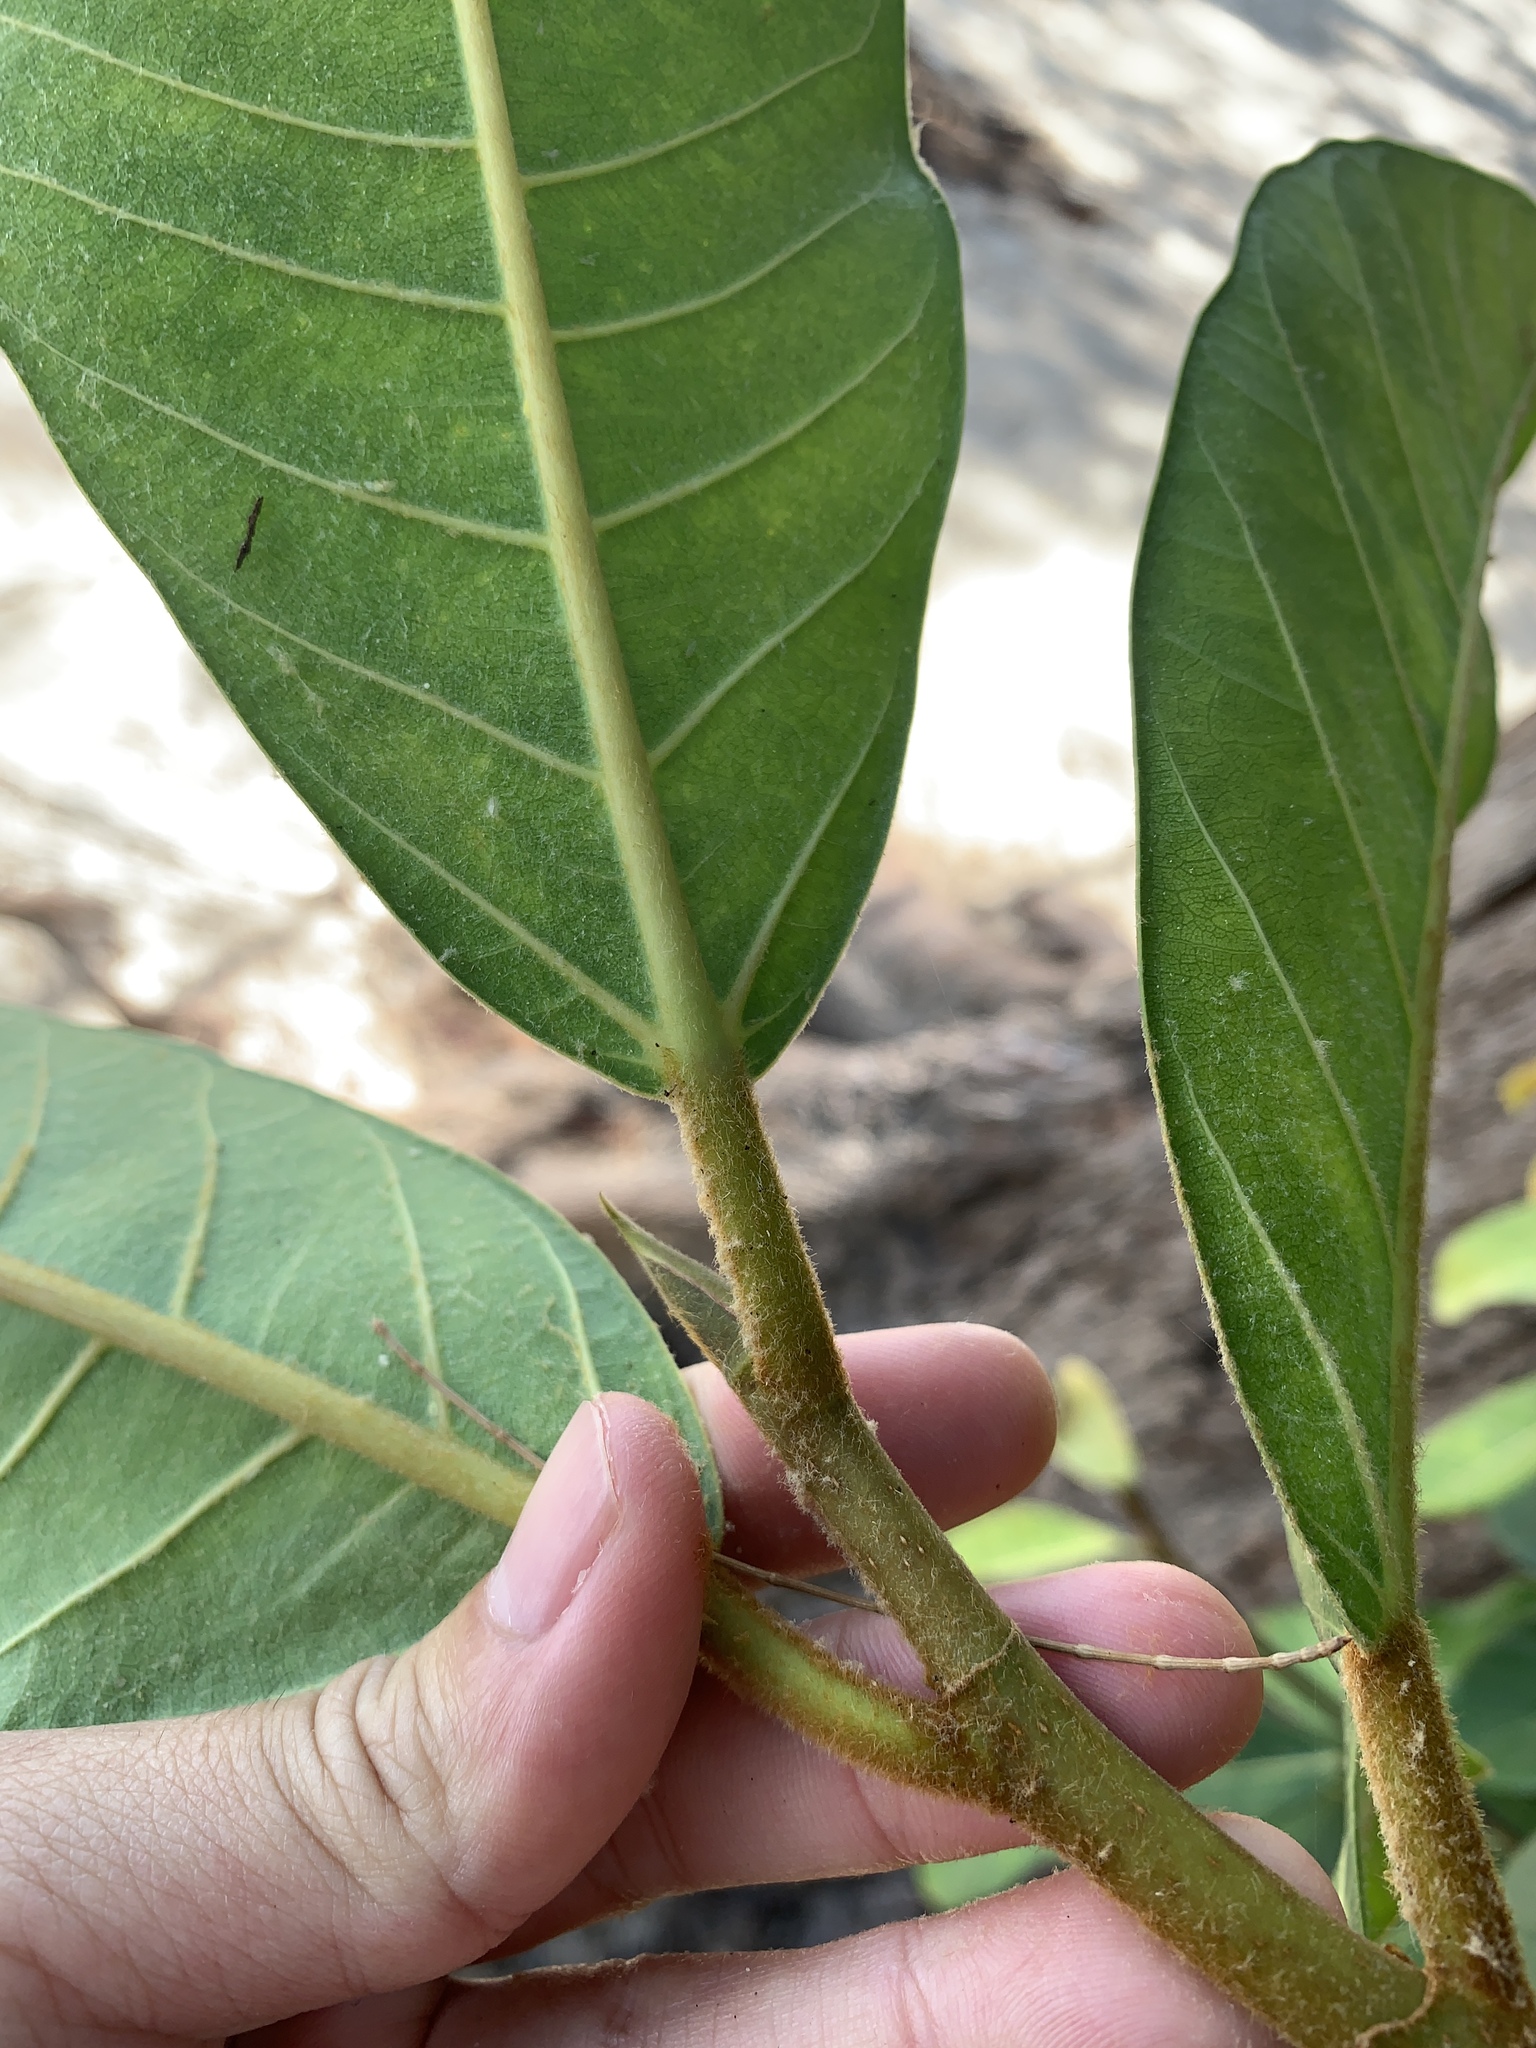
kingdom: Plantae
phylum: Tracheophyta
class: Magnoliopsida
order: Rosales
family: Moraceae
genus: Ficus
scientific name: Ficus drupacea
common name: Drupe fig
